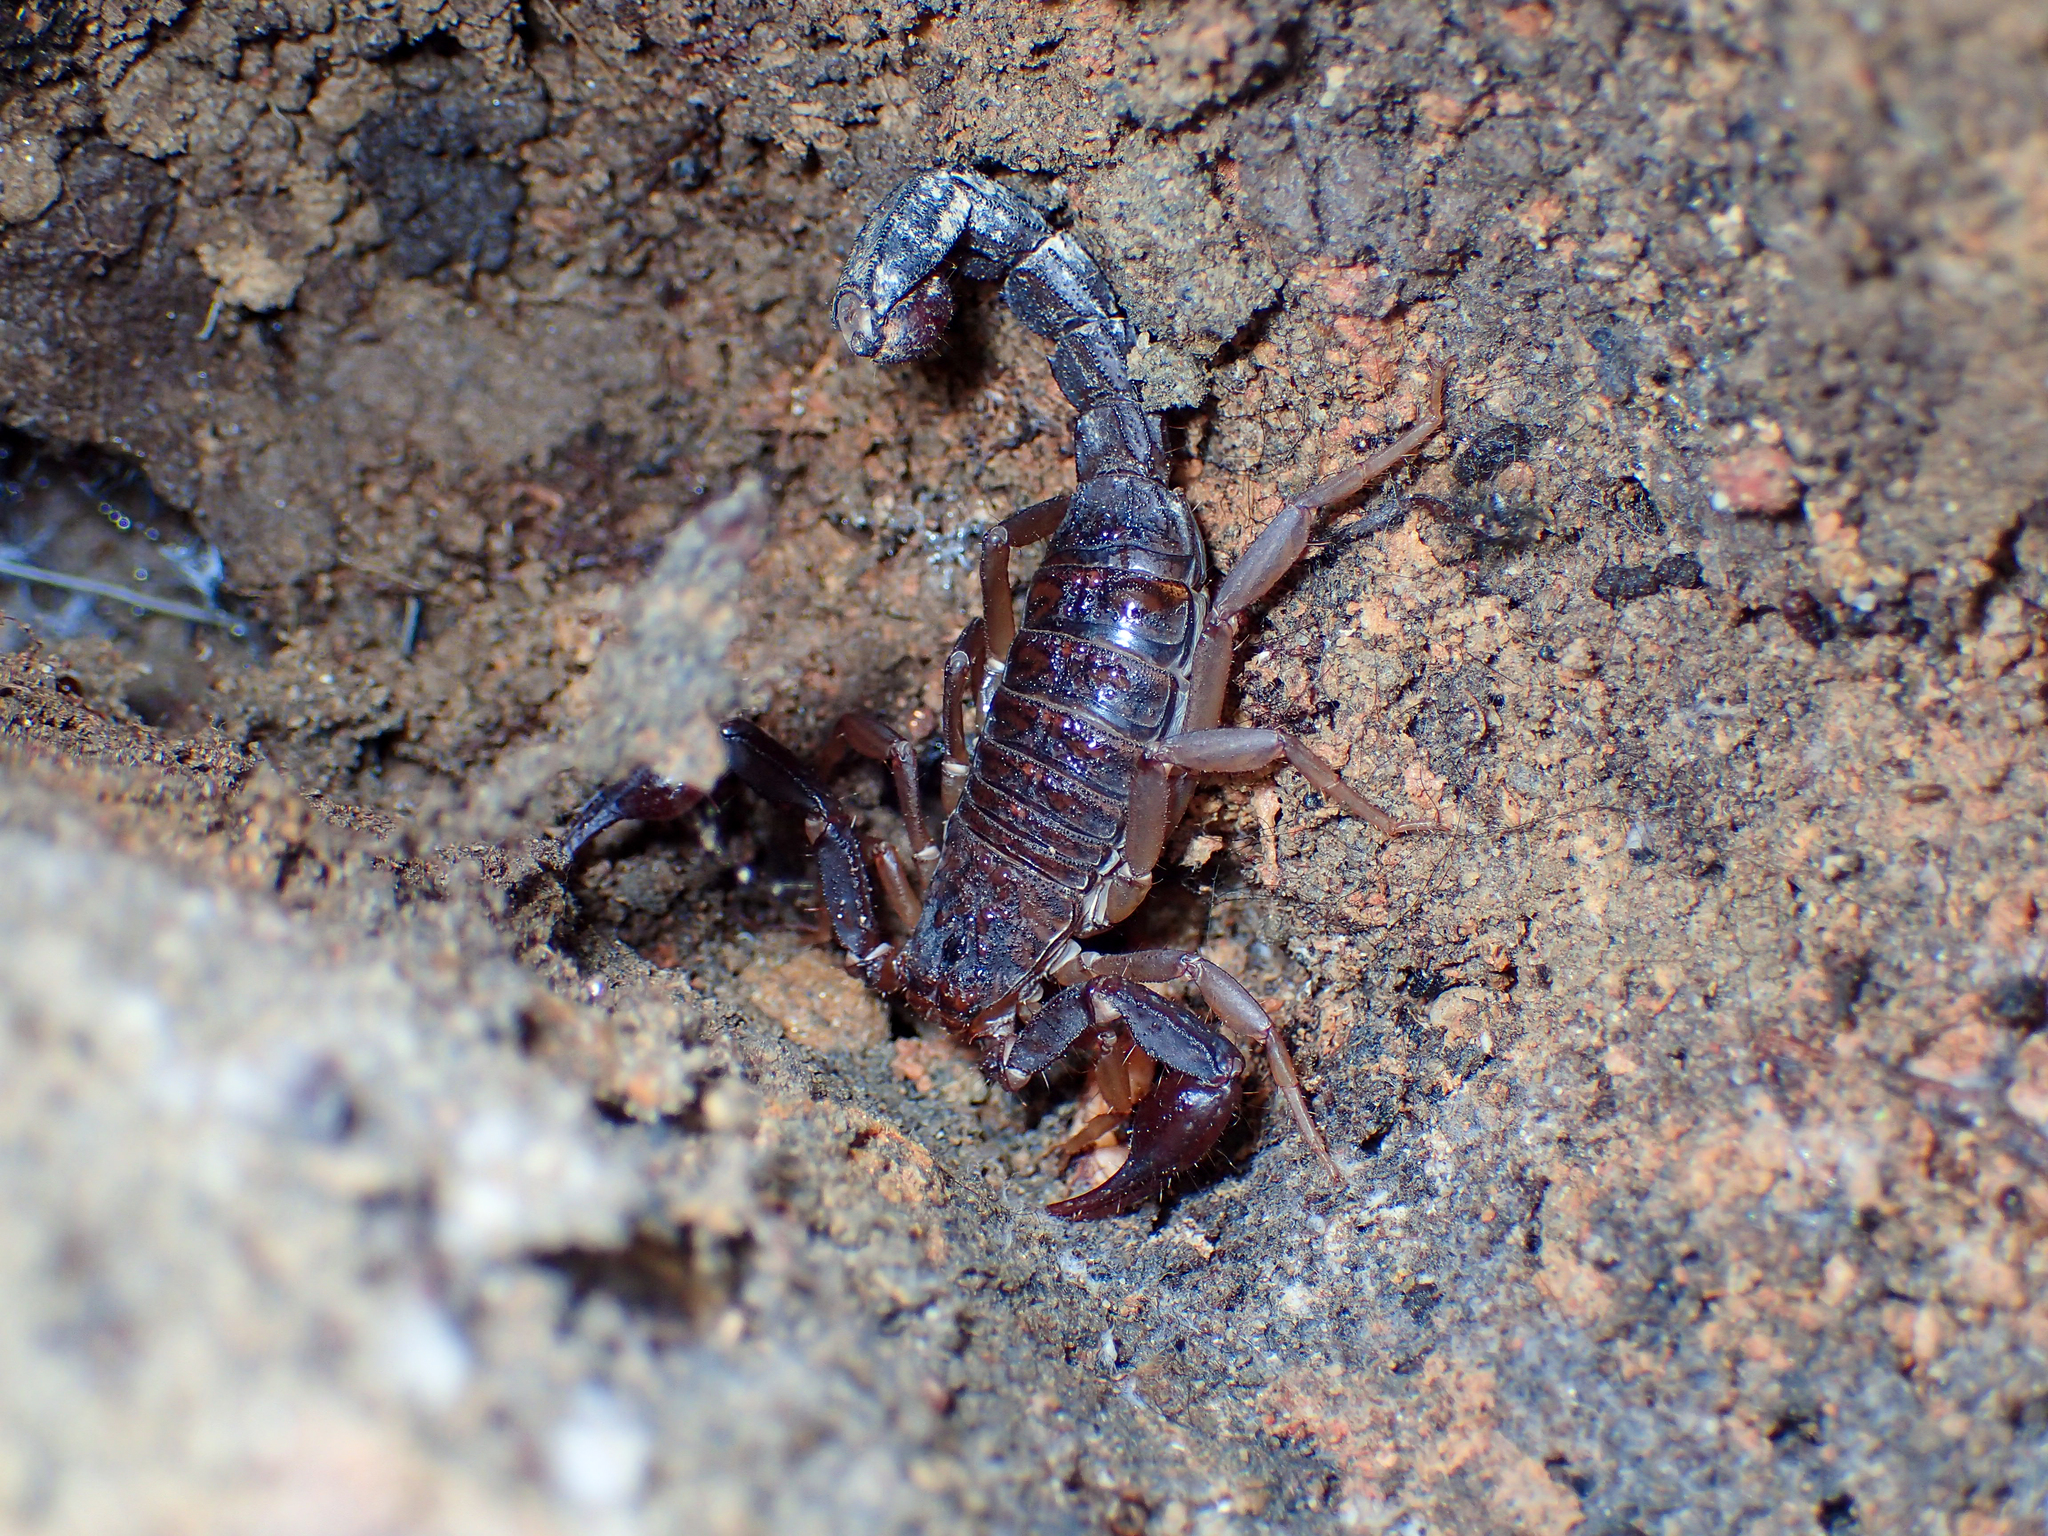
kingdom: Animalia
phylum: Arthropoda
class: Arachnida
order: Scorpiones
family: Vaejovidae
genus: Vaejovis
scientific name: Vaejovis carolinianus
